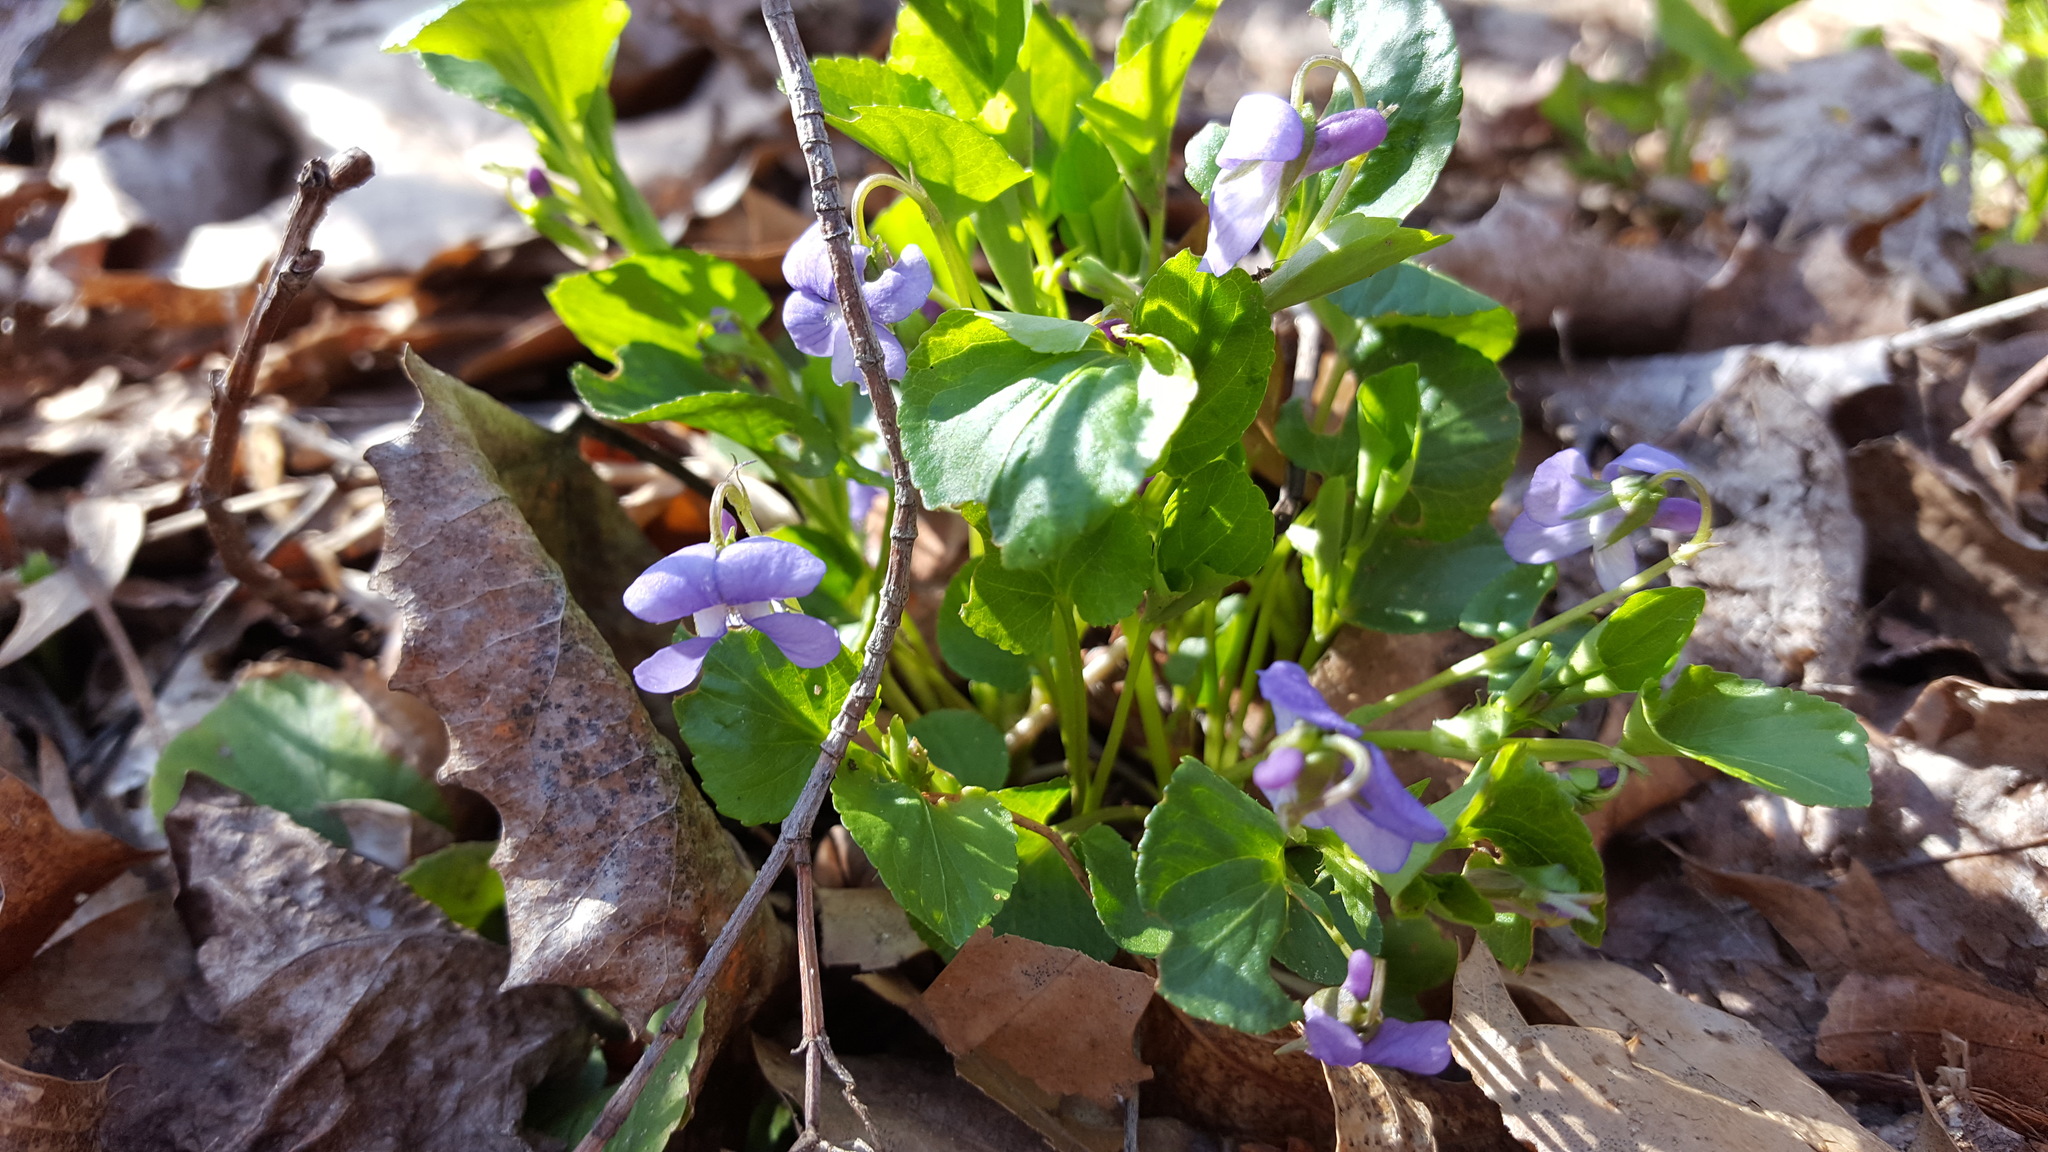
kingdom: Plantae
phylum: Tracheophyta
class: Magnoliopsida
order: Malpighiales
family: Violaceae
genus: Viola
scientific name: Viola labradorica
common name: Labrador violet
